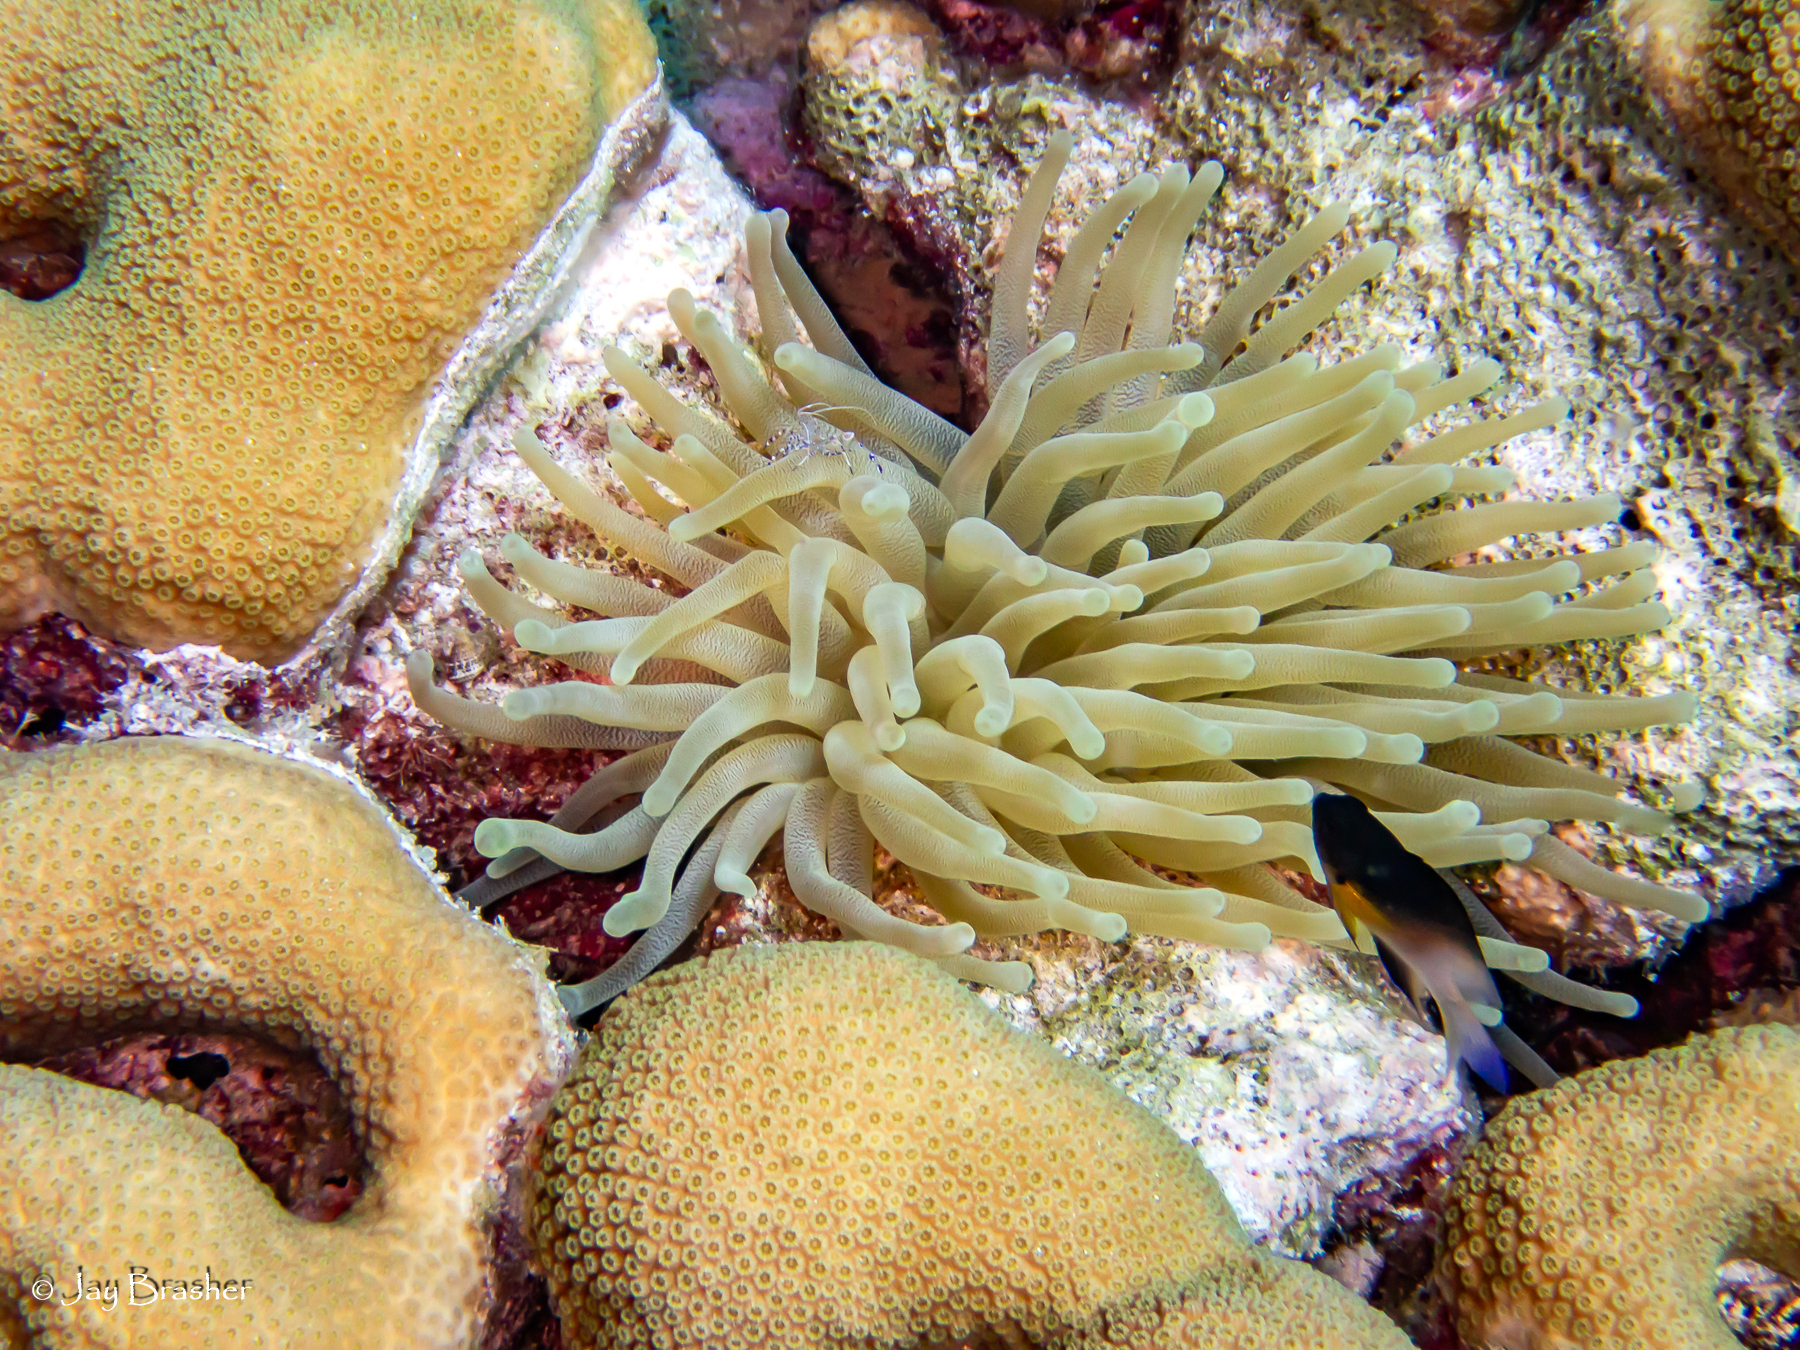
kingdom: Animalia
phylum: Chordata
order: Perciformes
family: Pomacentridae
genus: Stegastes
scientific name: Stegastes partitus
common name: Bicolor damselfish
